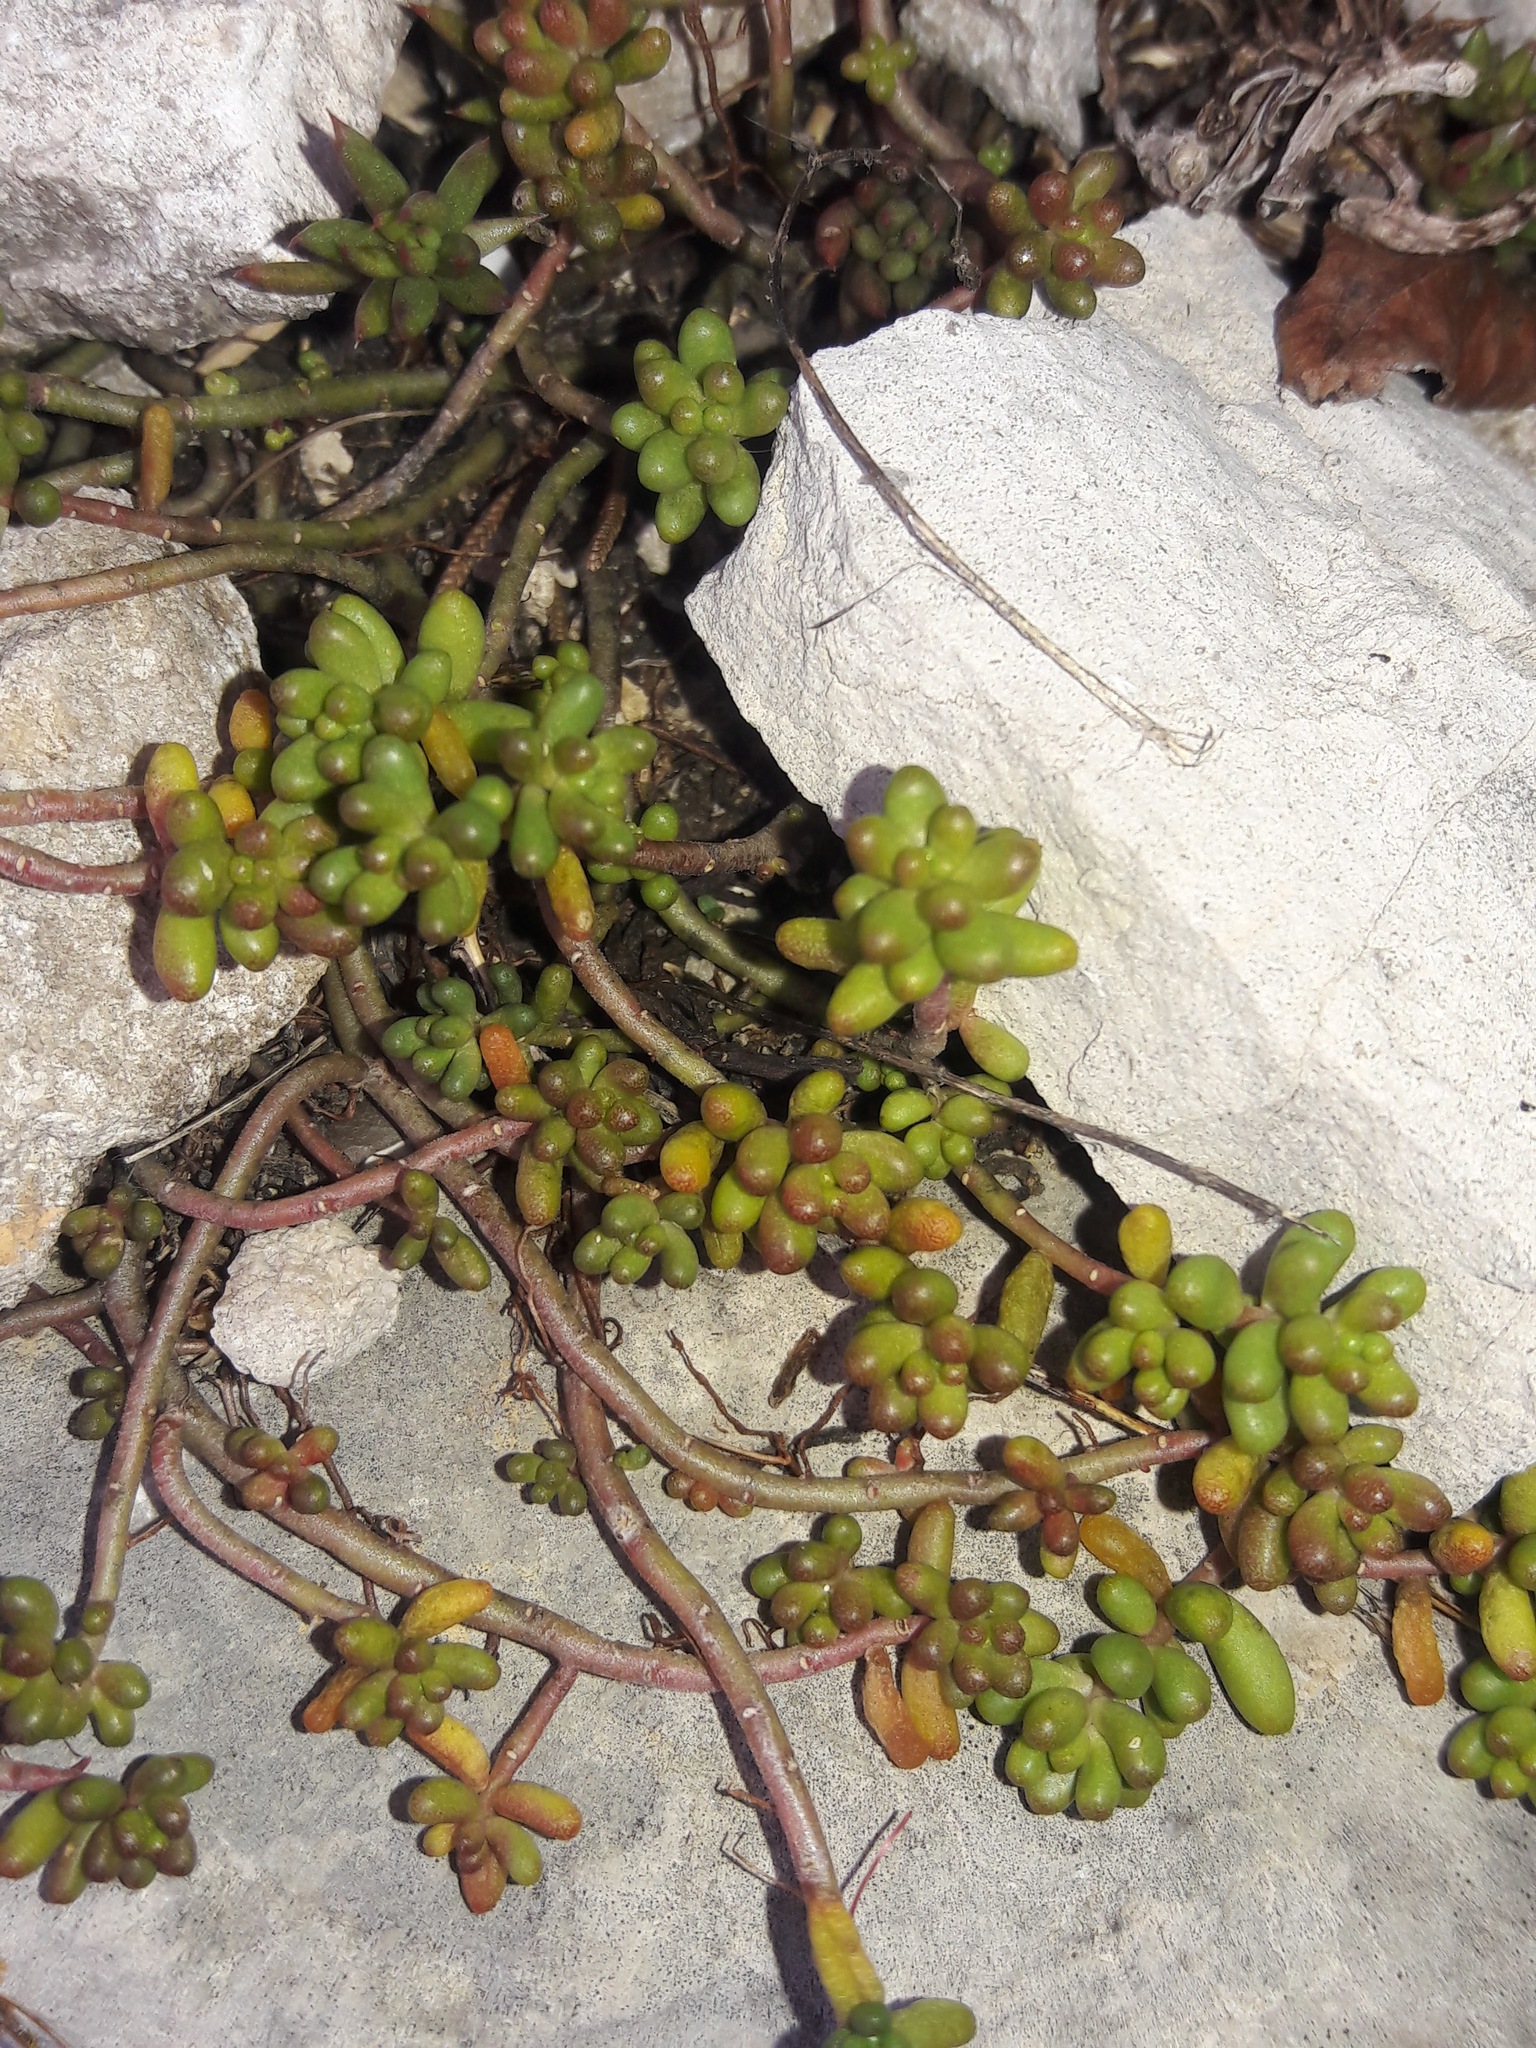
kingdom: Plantae
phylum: Tracheophyta
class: Magnoliopsida
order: Saxifragales
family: Crassulaceae
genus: Sedum
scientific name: Sedum album
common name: White stonecrop
